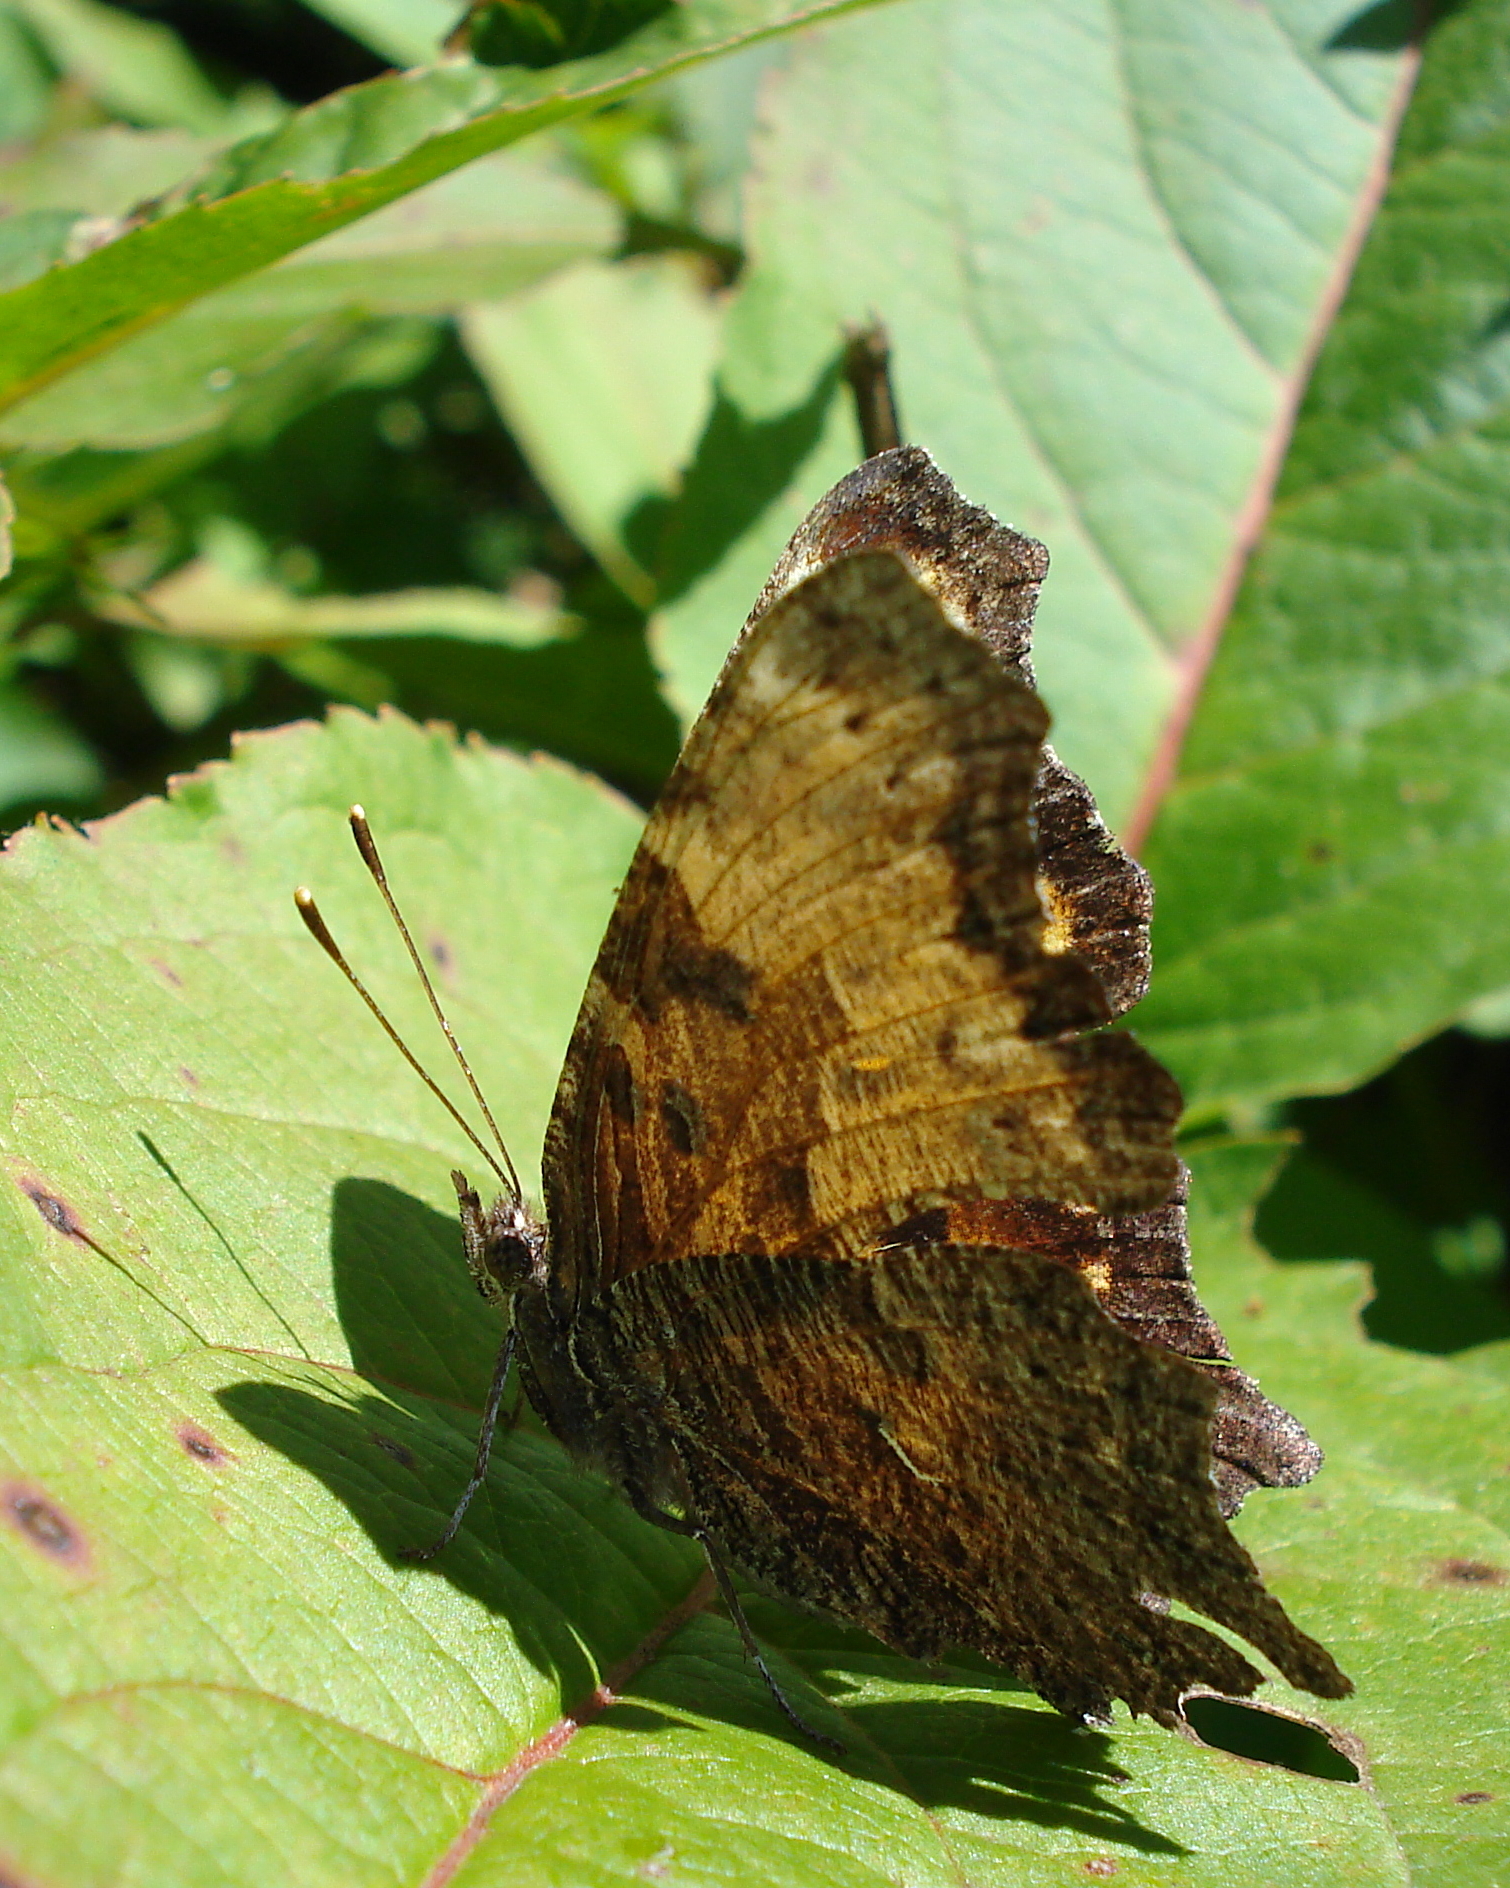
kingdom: Animalia
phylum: Arthropoda
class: Insecta
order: Lepidoptera
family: Nymphalidae
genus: Polygonia
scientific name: Polygonia progne
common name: Gray comma
